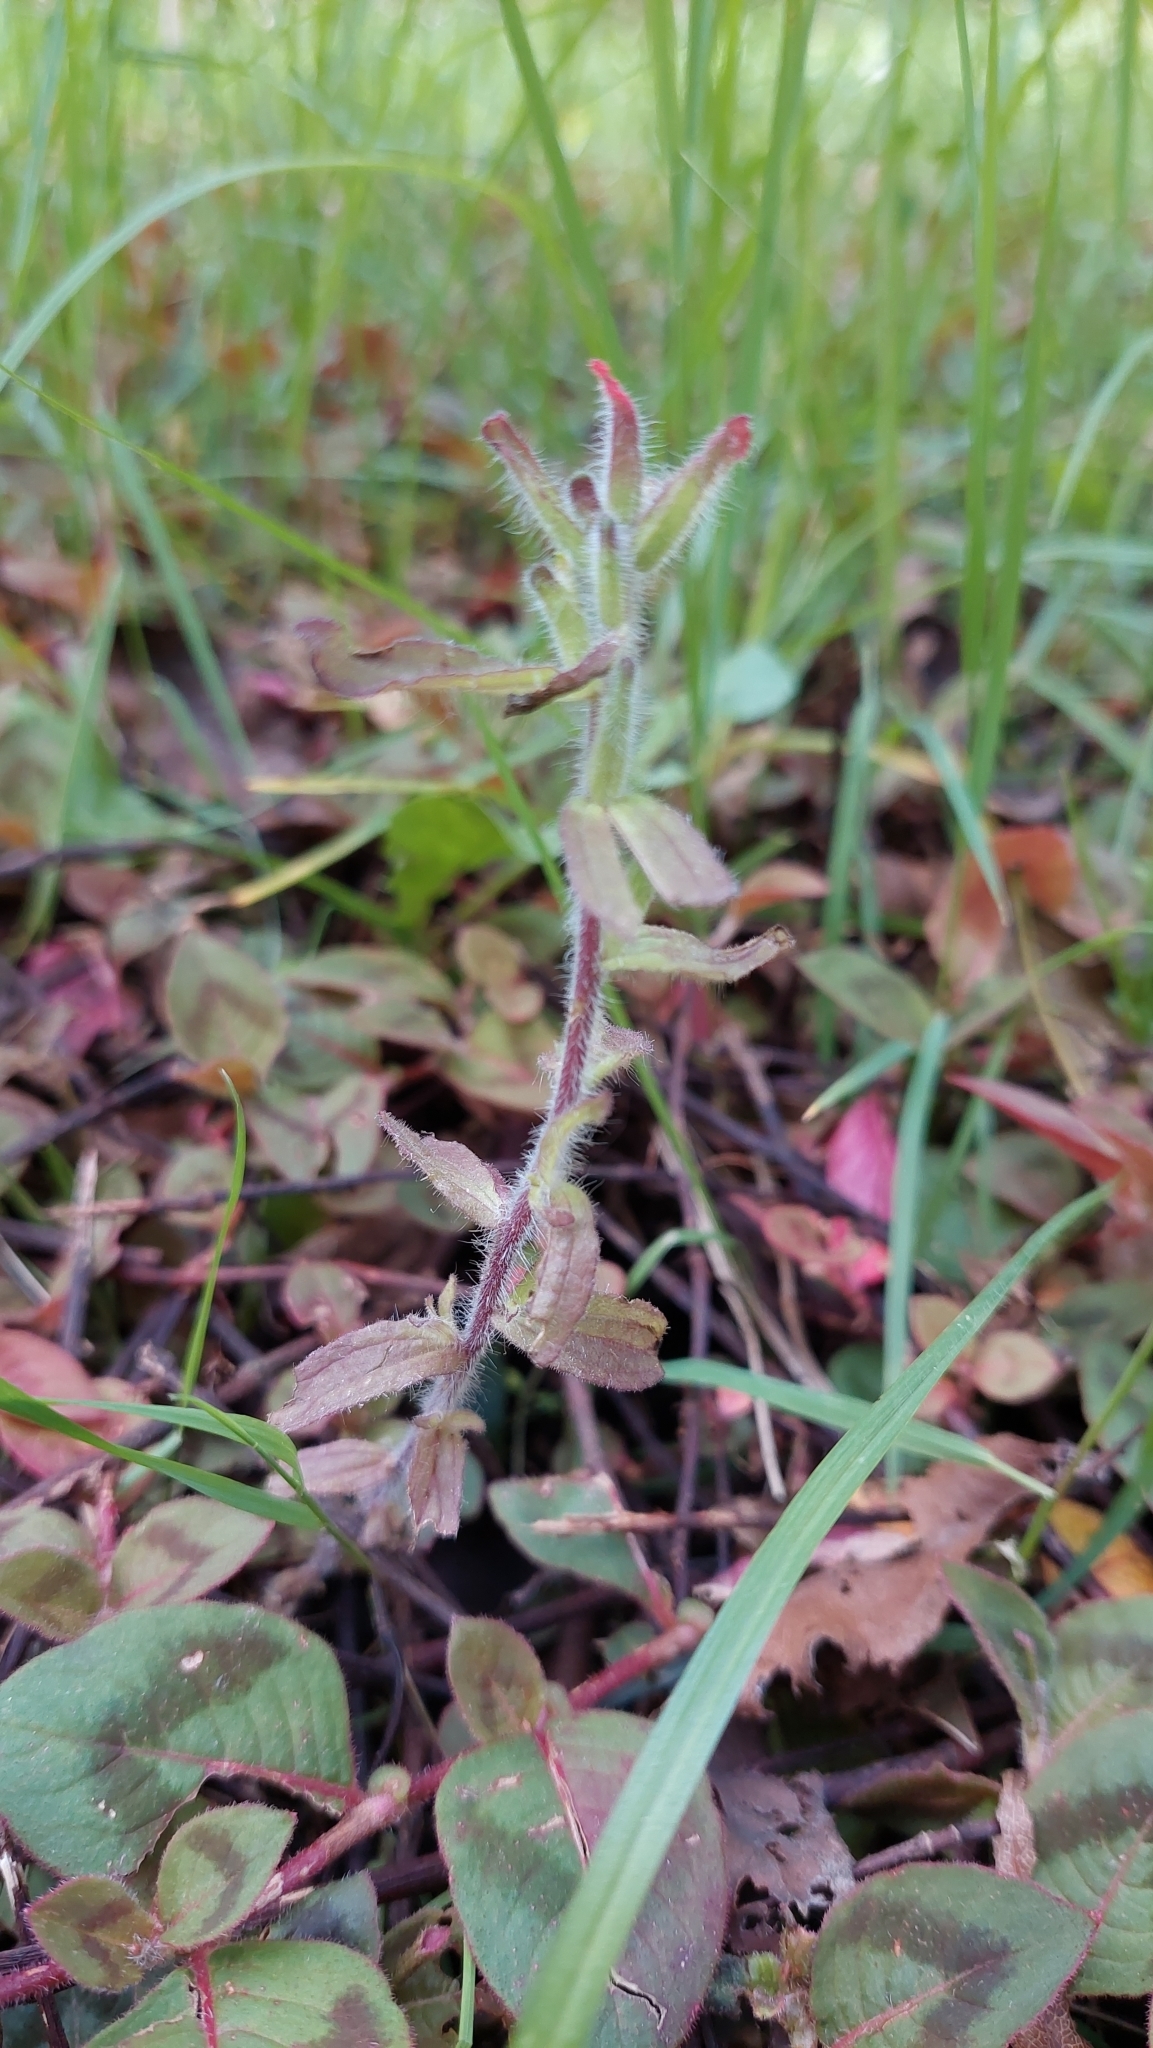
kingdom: Plantae
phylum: Tracheophyta
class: Magnoliopsida
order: Lamiales
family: Orobanchaceae
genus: Castilleja
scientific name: Castilleja arvensis
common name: Indian paintbrush
